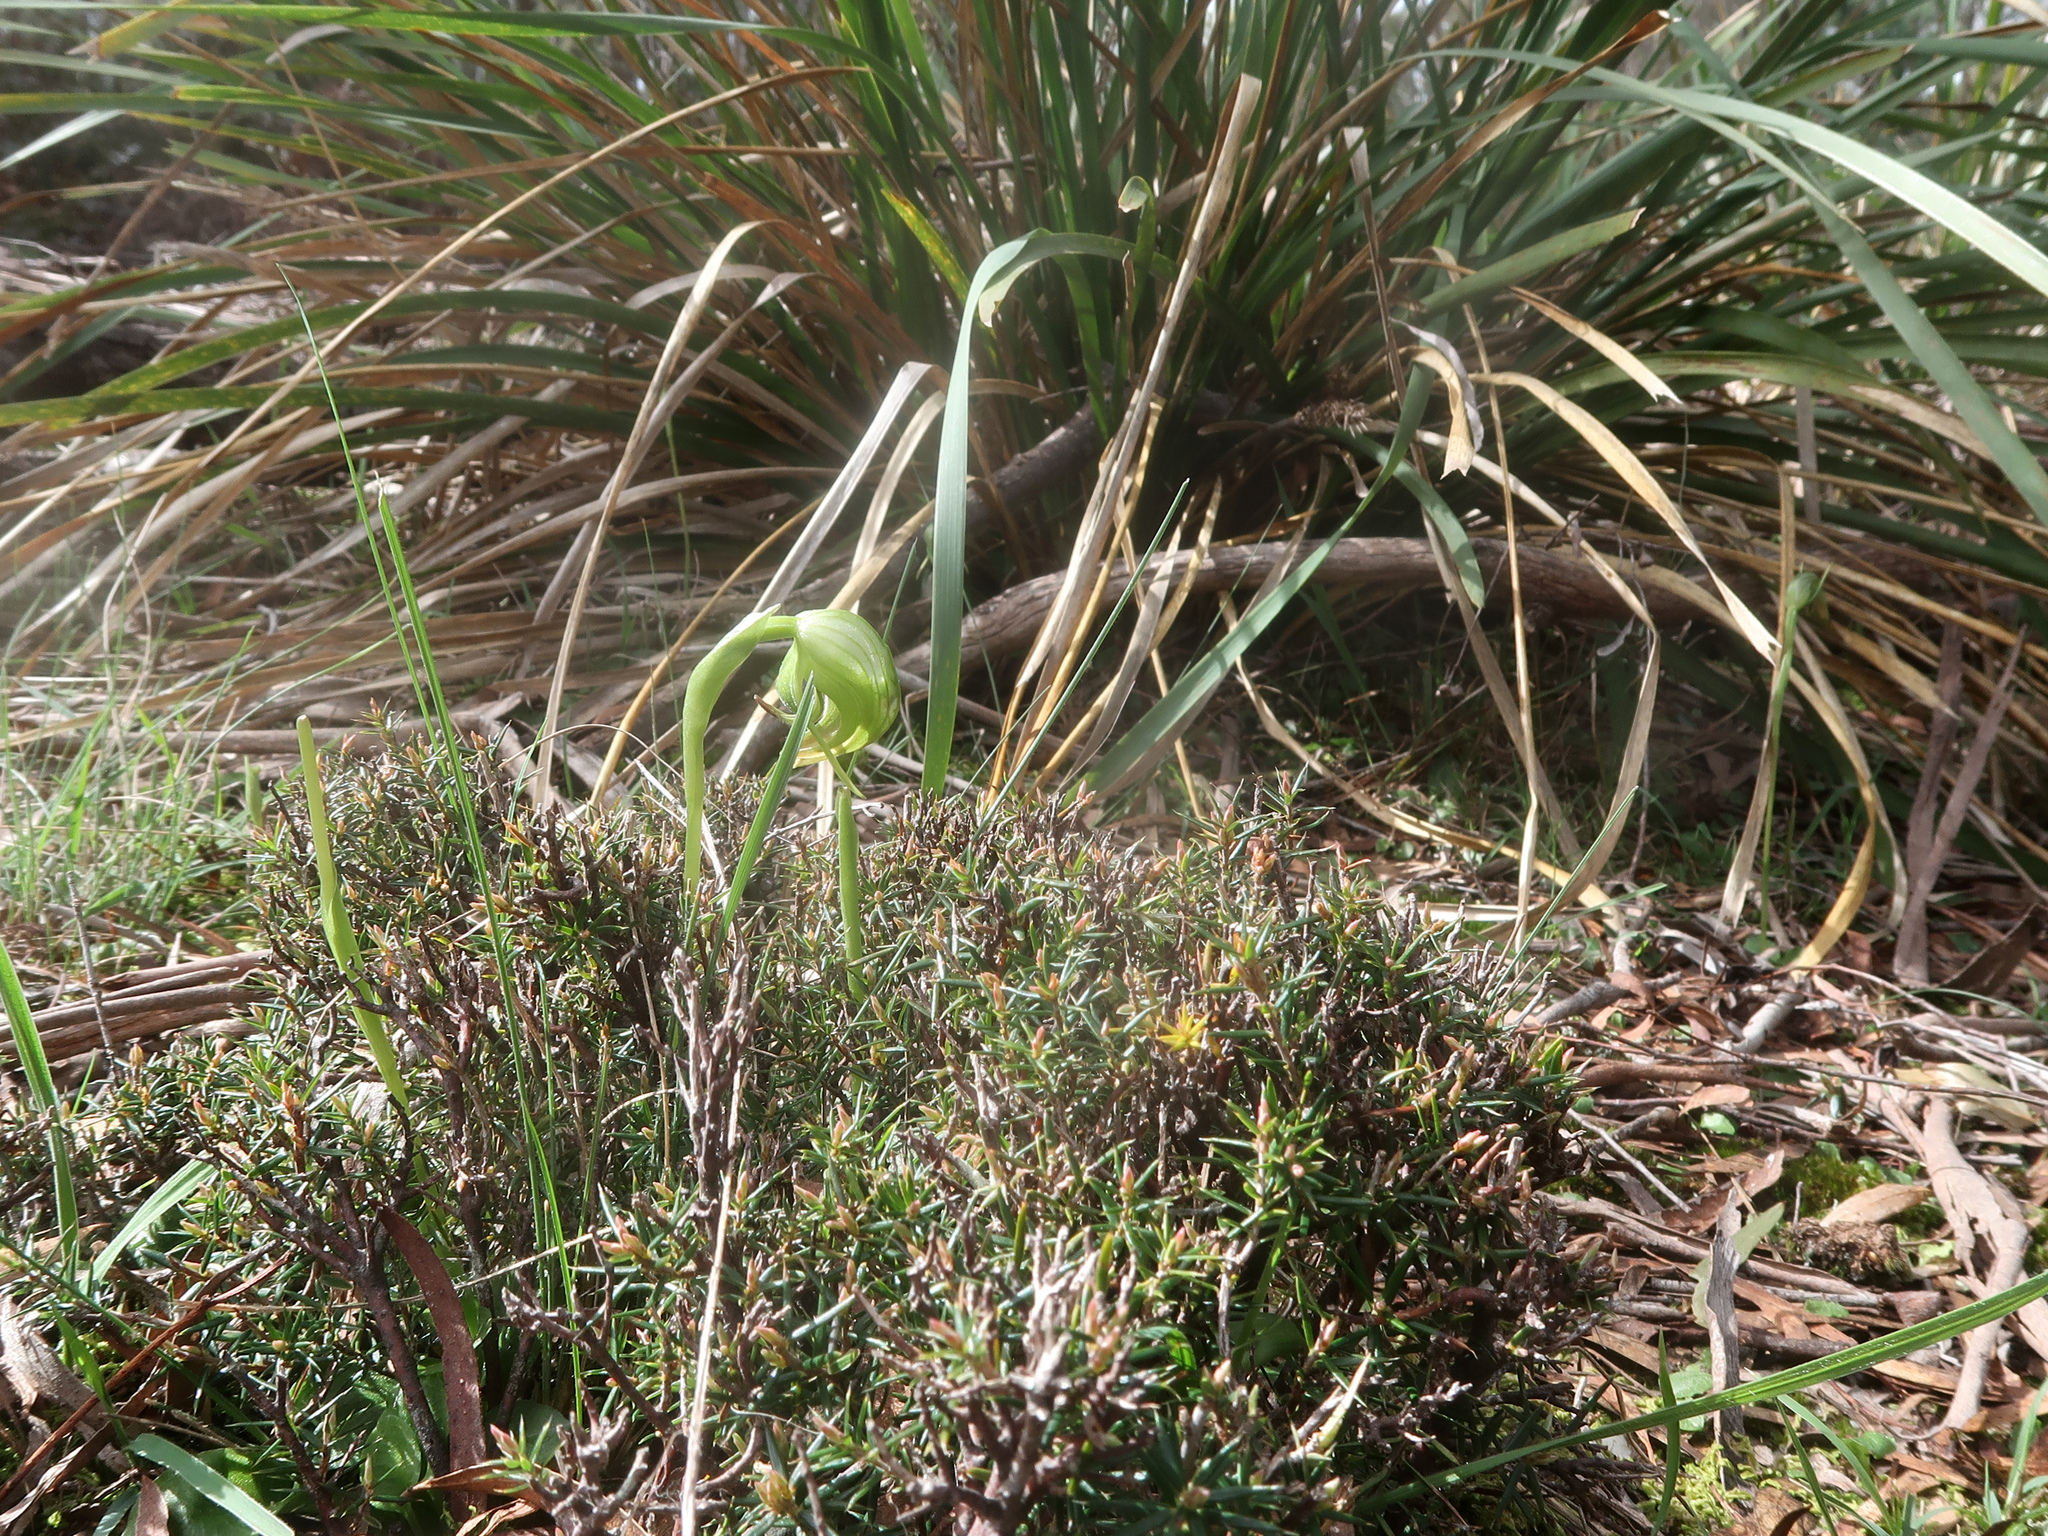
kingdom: Plantae
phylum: Tracheophyta
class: Liliopsida
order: Asparagales
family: Orchidaceae
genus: Pterostylis
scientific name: Pterostylis nutans
